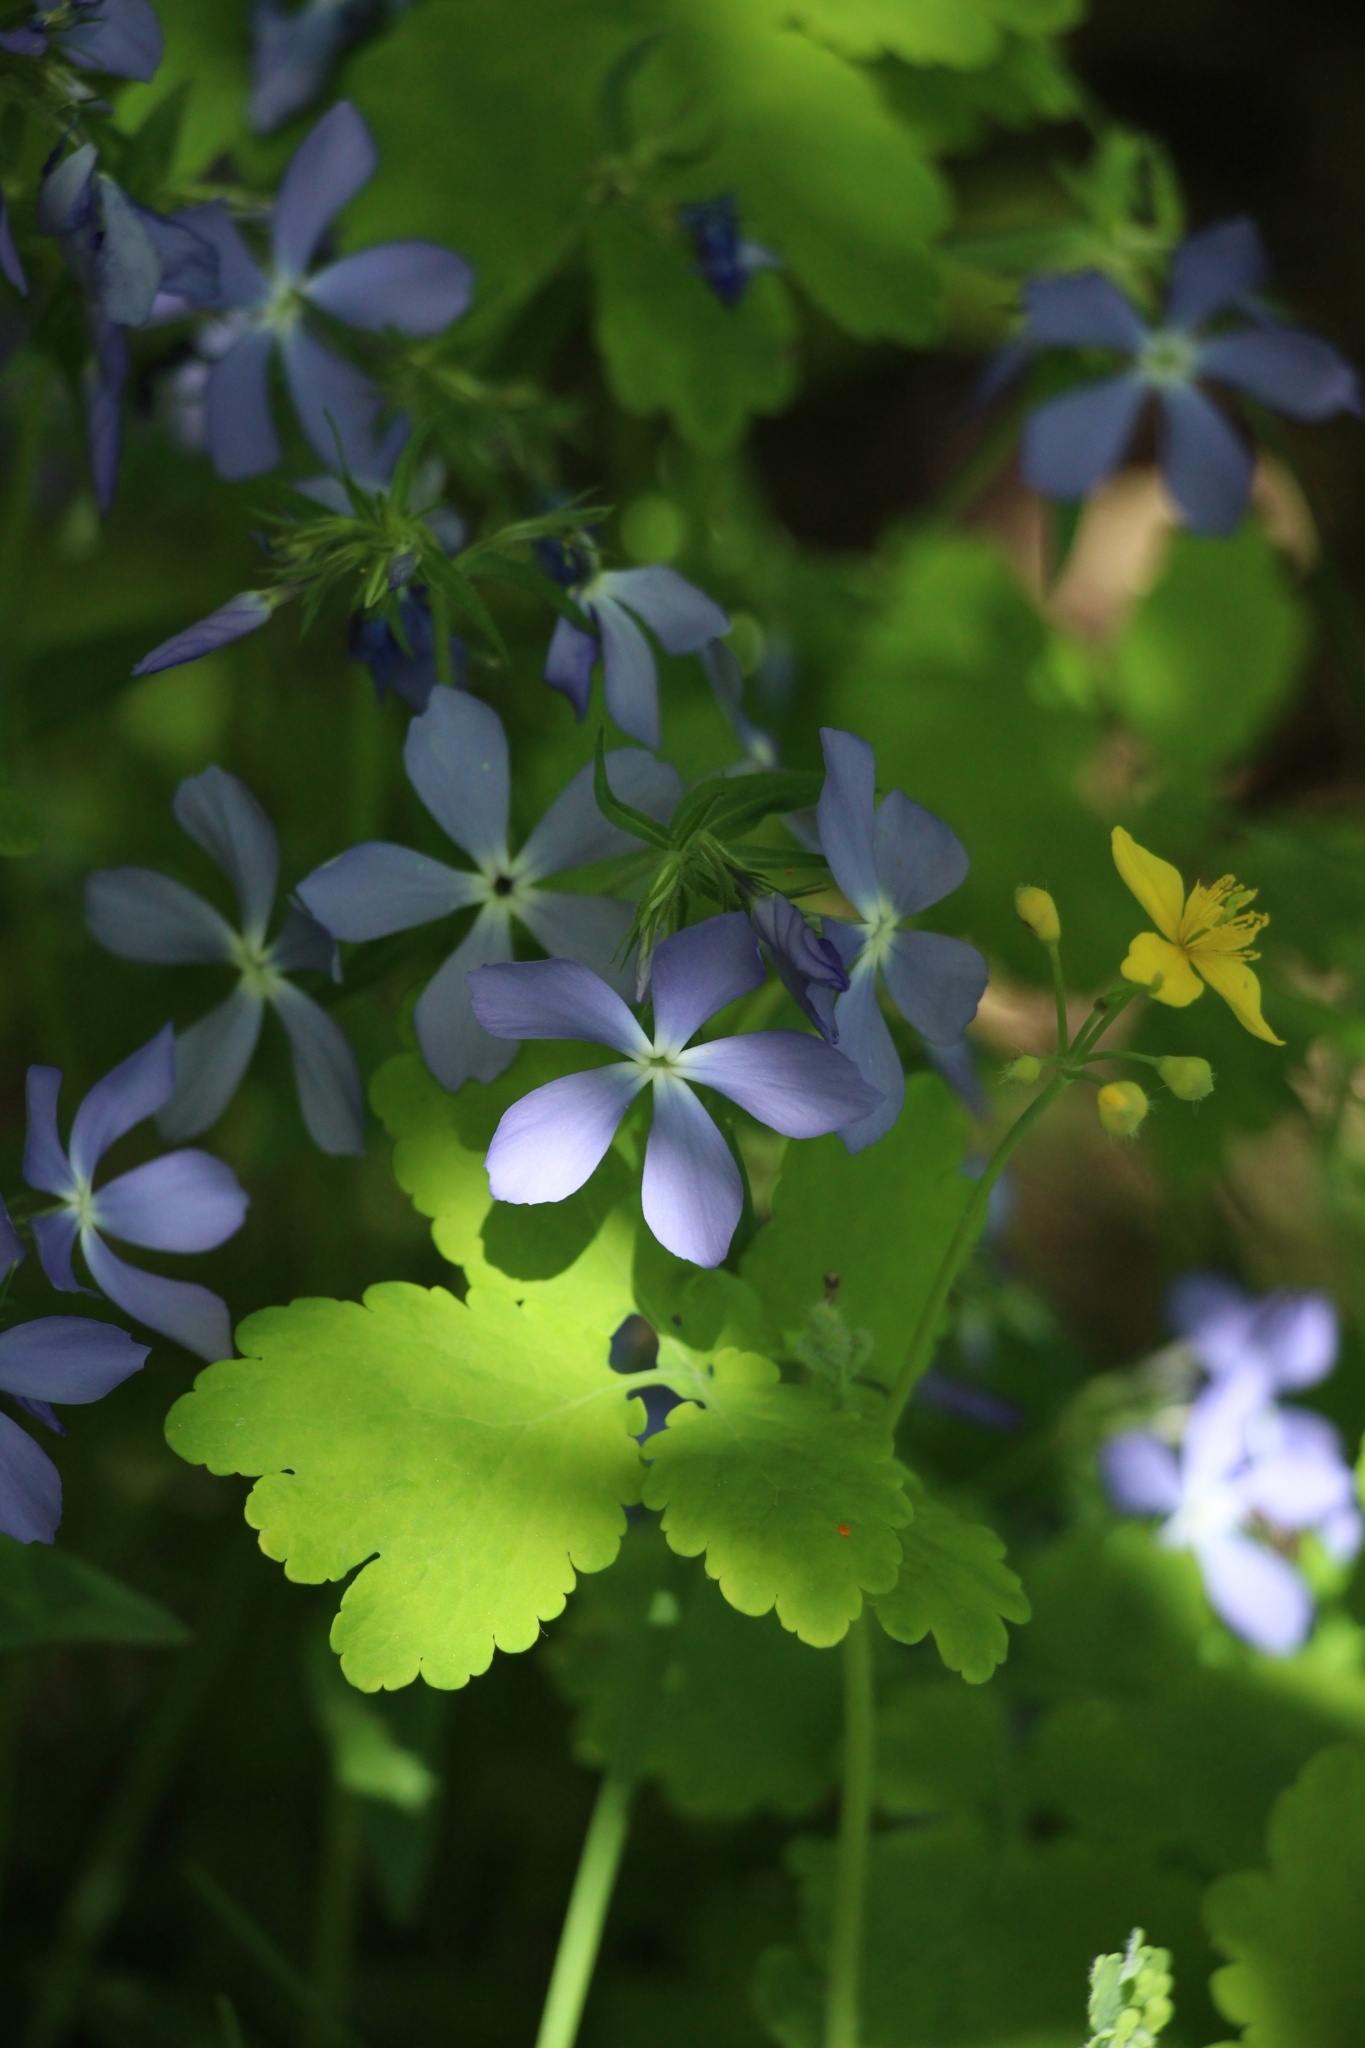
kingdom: Plantae
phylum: Tracheophyta
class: Magnoliopsida
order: Ericales
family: Polemoniaceae
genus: Phlox
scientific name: Phlox divaricata
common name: Blue phlox
